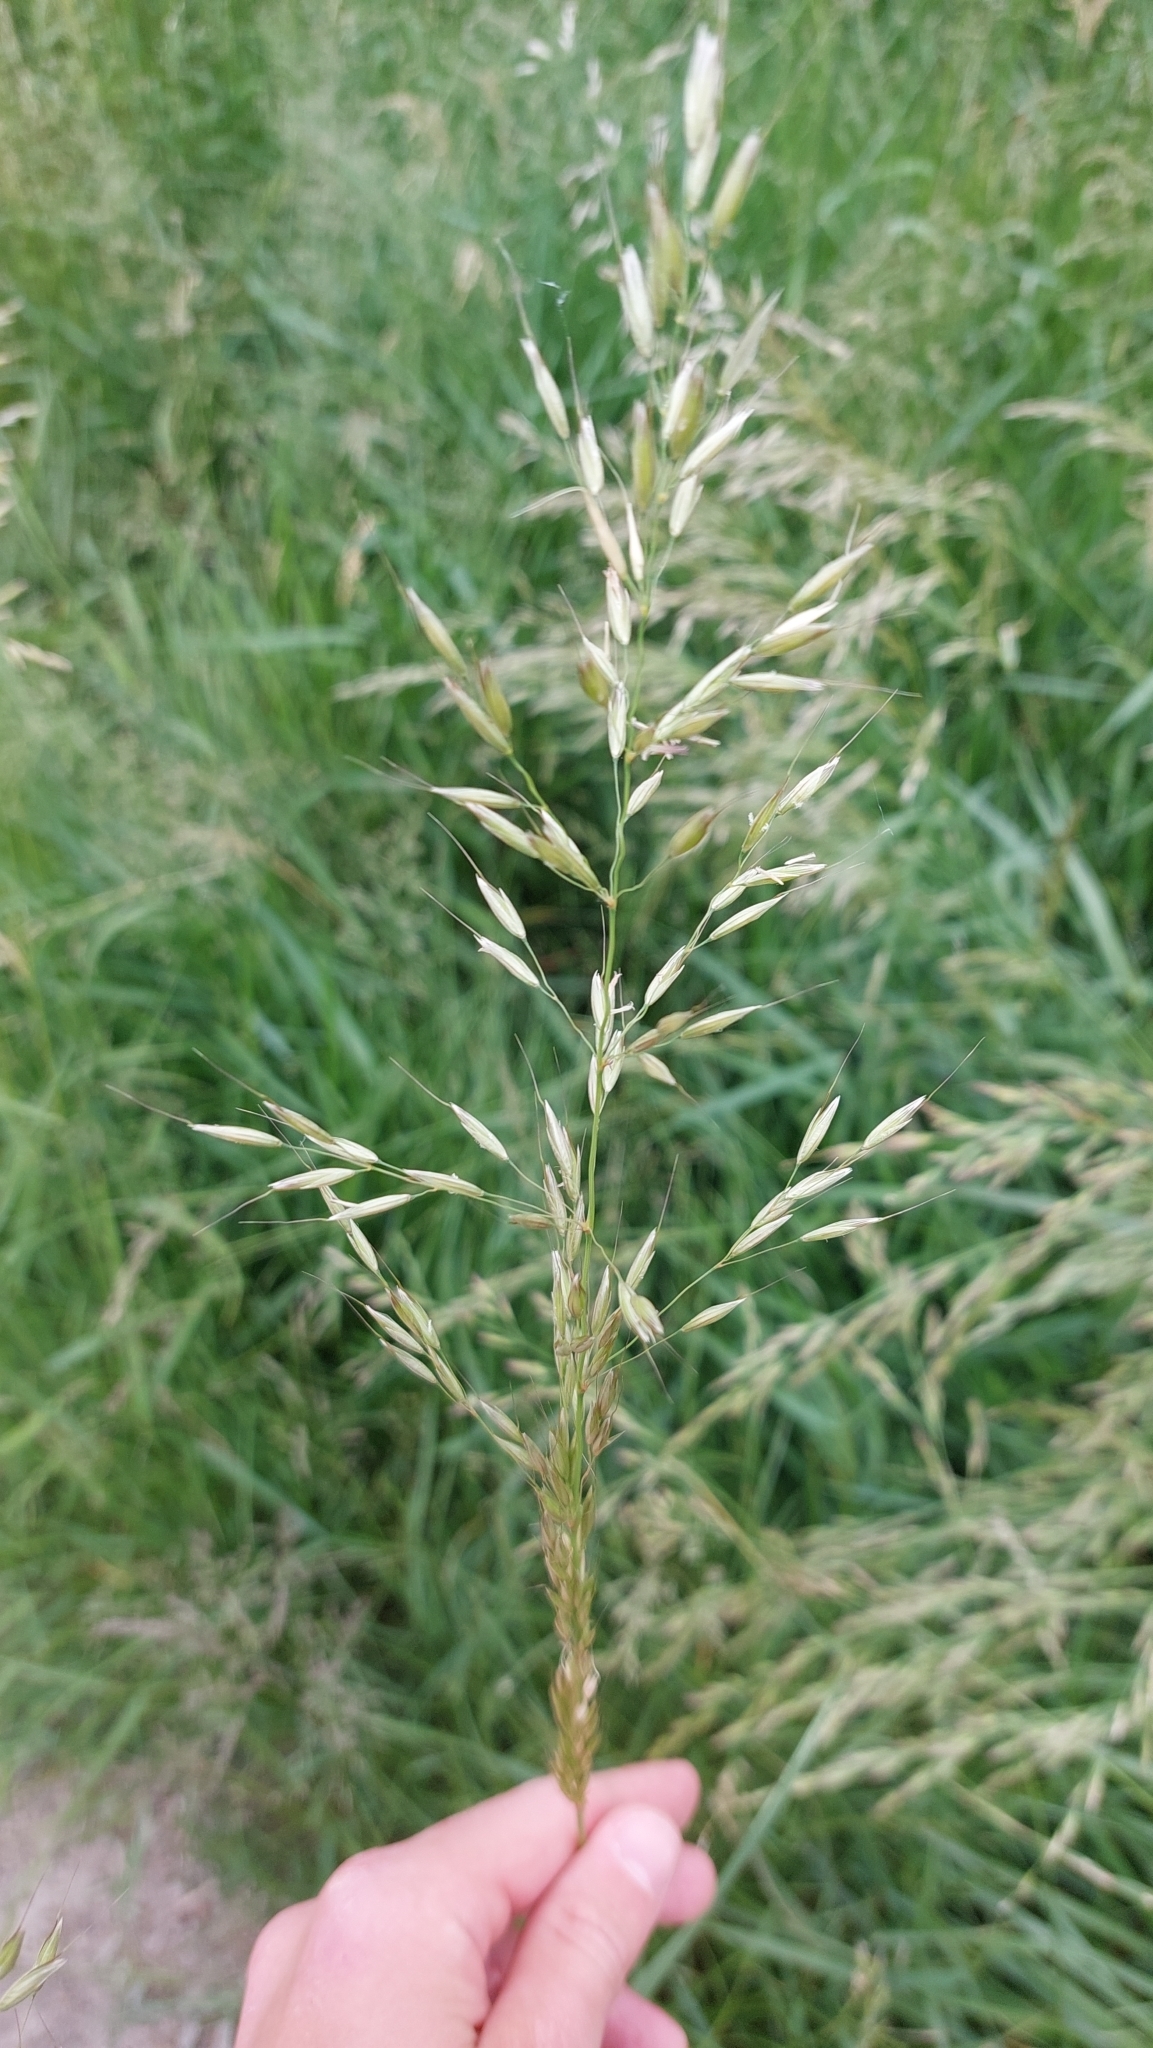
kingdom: Plantae
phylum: Tracheophyta
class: Liliopsida
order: Poales
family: Poaceae
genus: Arrhenatherum
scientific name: Arrhenatherum elatius
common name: Tall oatgrass
